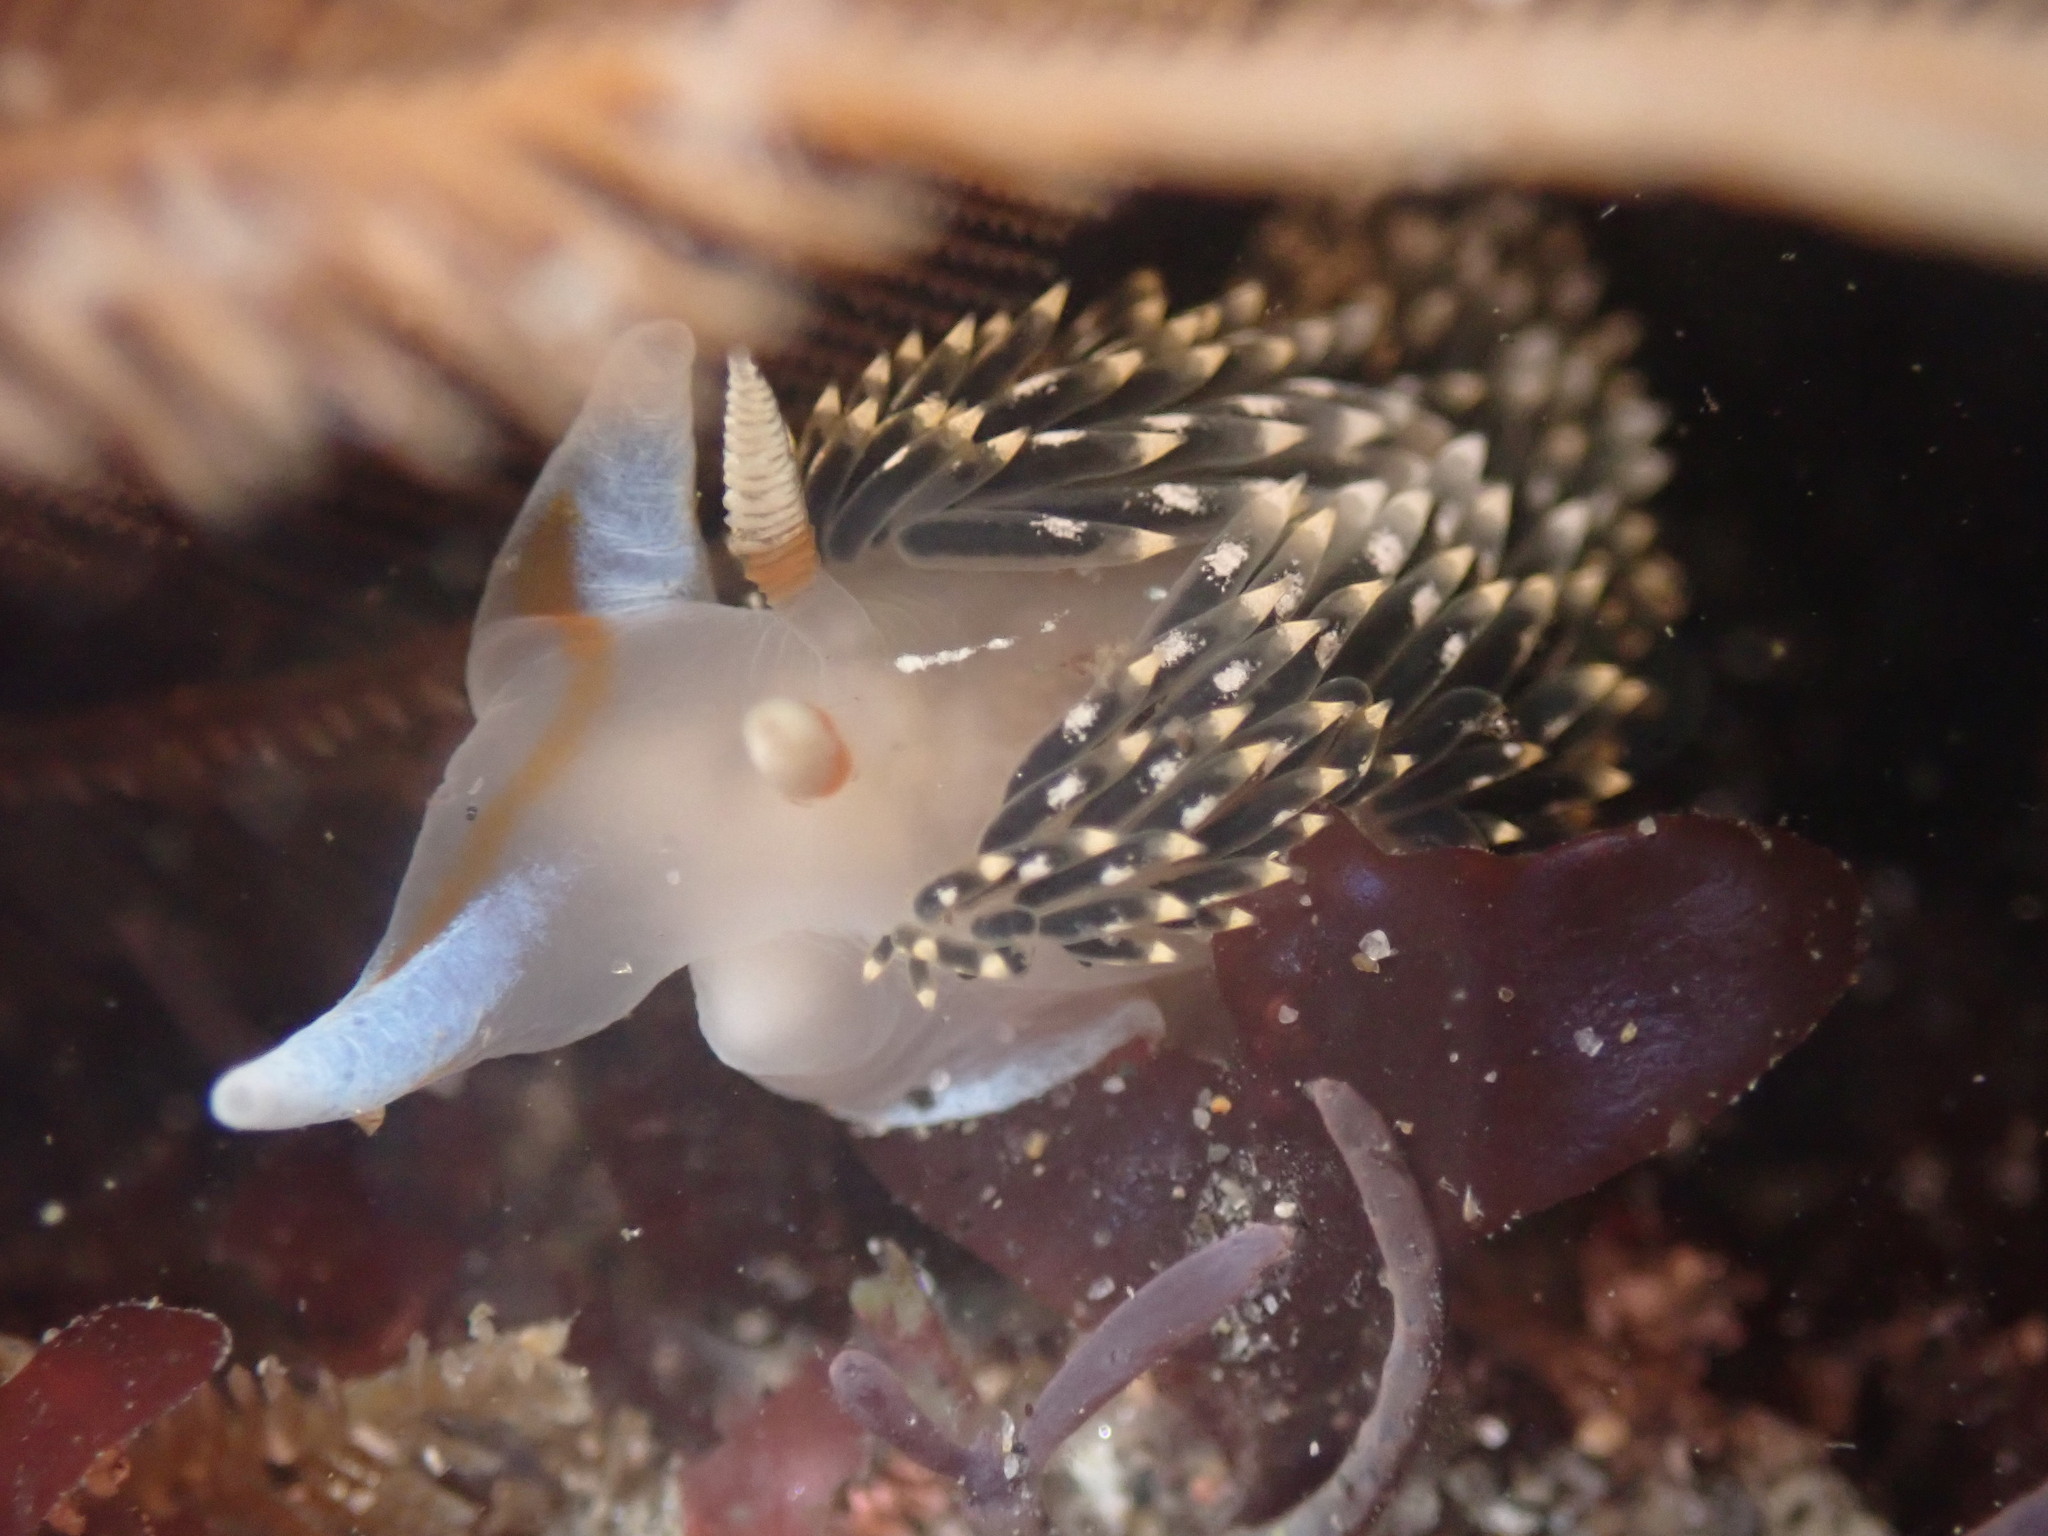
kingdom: Animalia
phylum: Mollusca
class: Gastropoda
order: Nudibranchia
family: Facelinidae
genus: Phidiana
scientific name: Phidiana hiltoni
